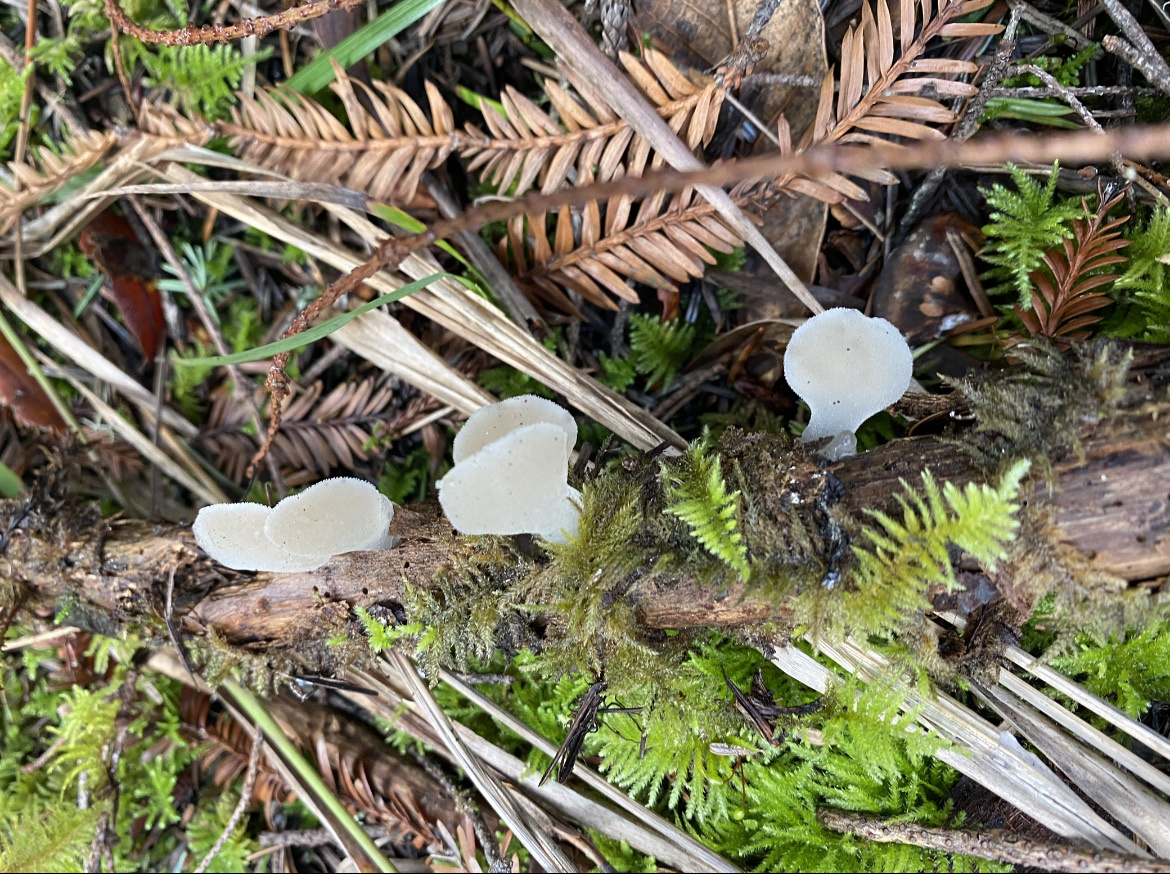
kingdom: Fungi
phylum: Basidiomycota
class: Agaricomycetes
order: Auriculariales
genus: Pseudohydnum
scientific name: Pseudohydnum gelatinosum
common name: Jelly tongue
